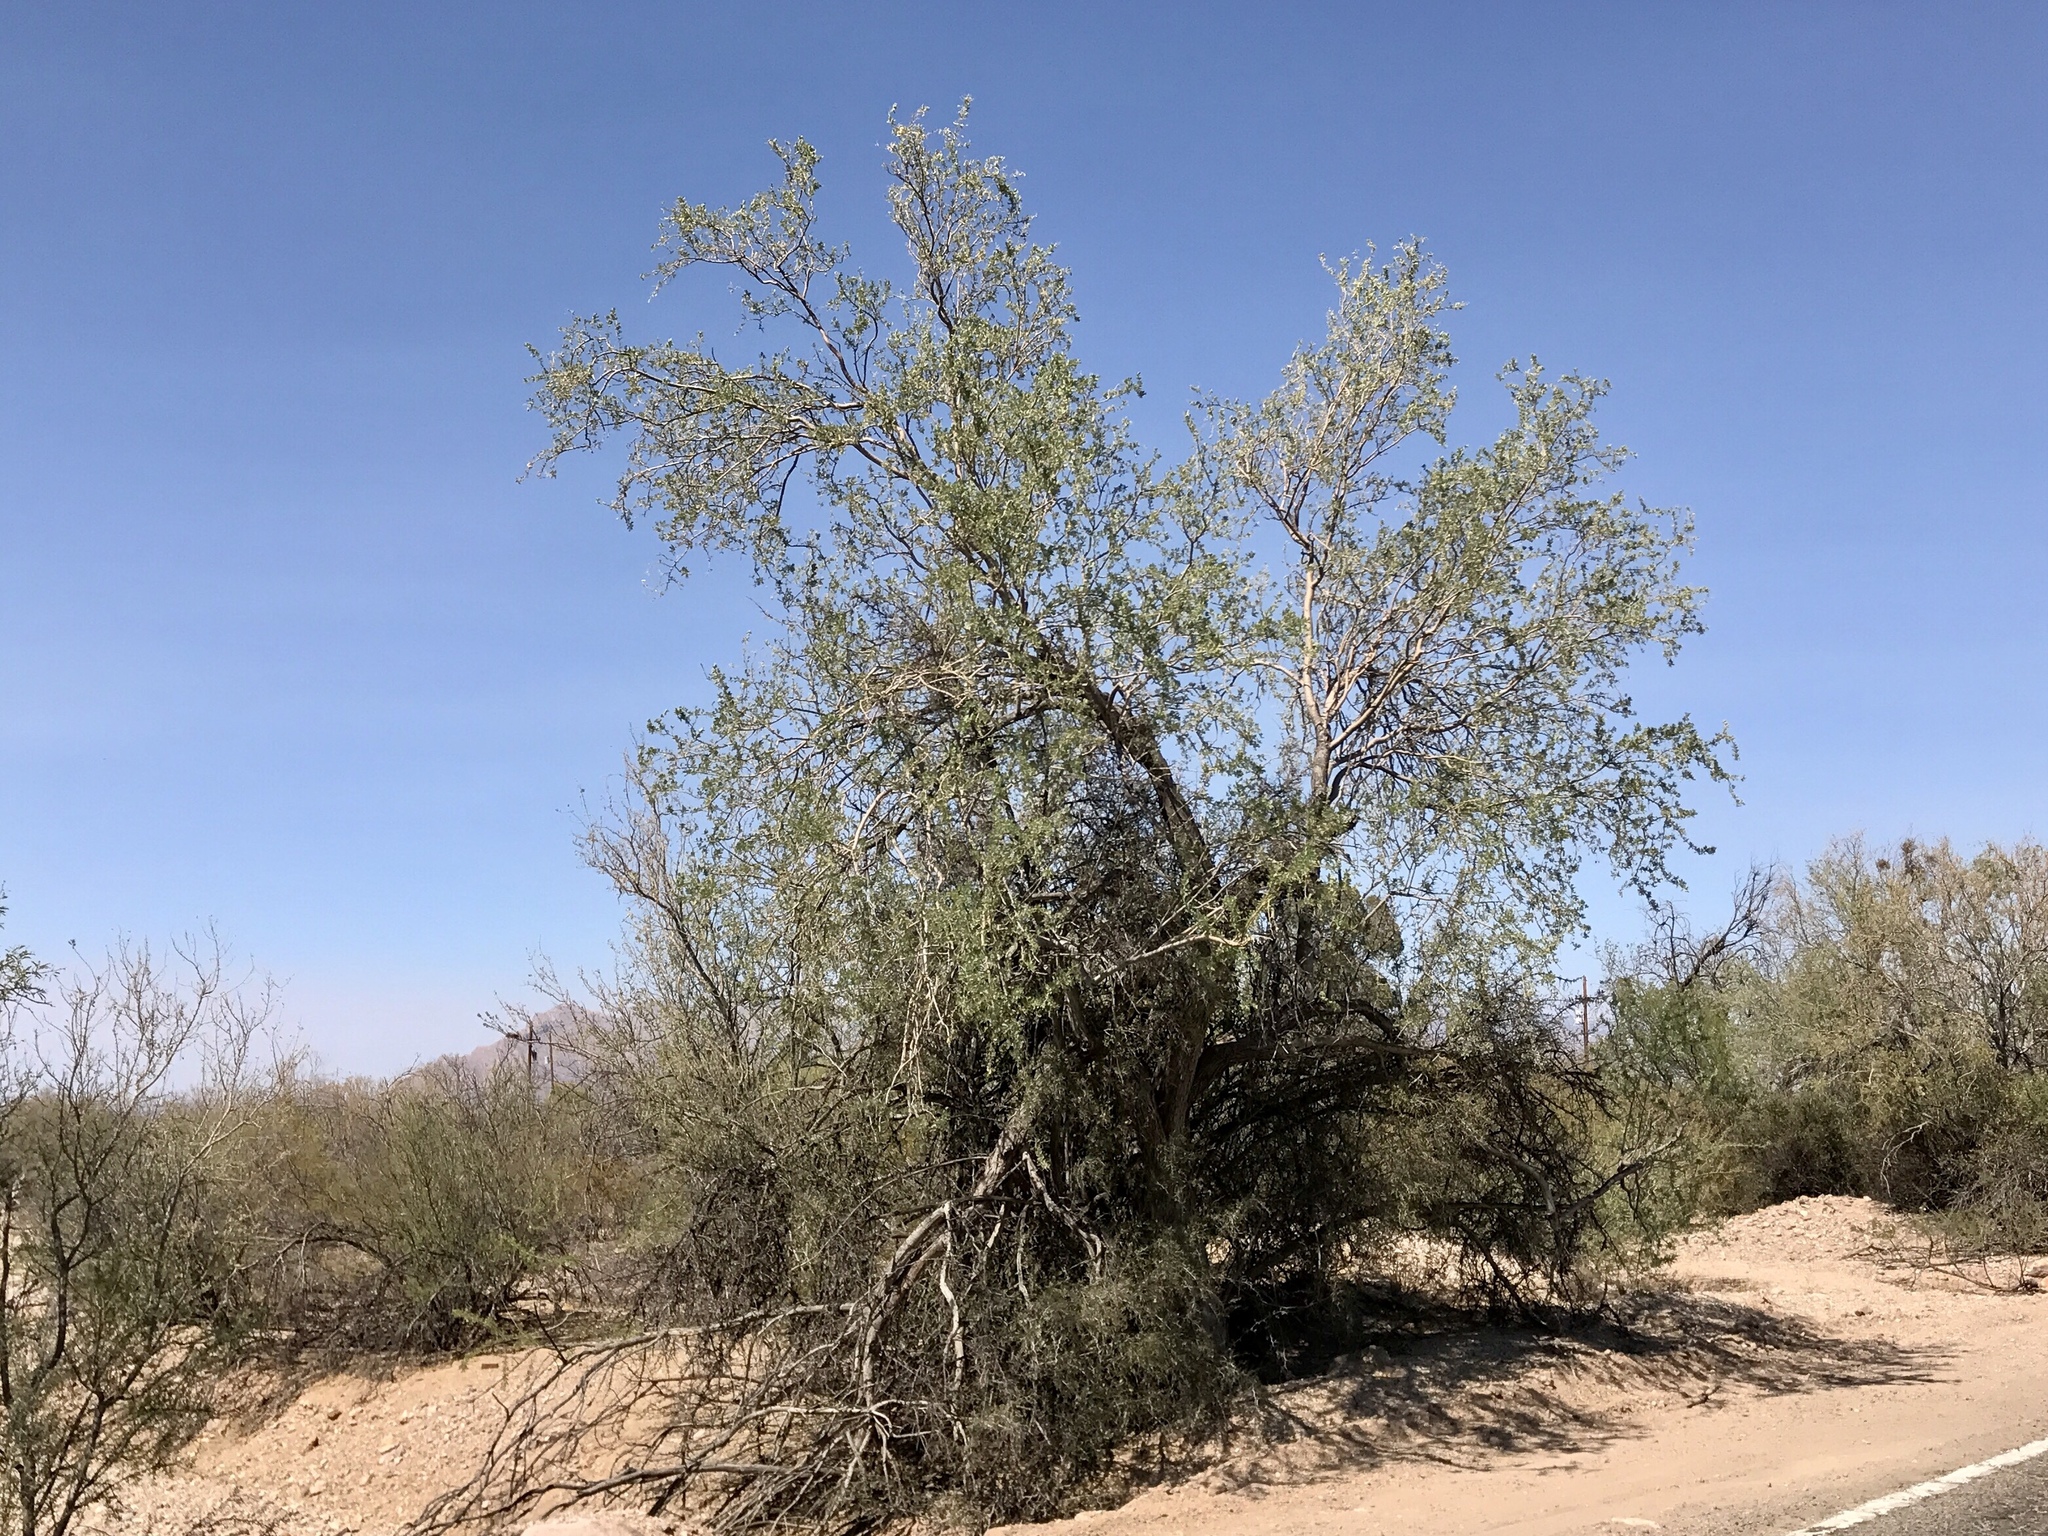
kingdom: Plantae
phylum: Tracheophyta
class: Magnoliopsida
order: Fabales
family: Fabaceae
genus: Olneya
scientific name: Olneya tesota
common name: Desert ironwood
